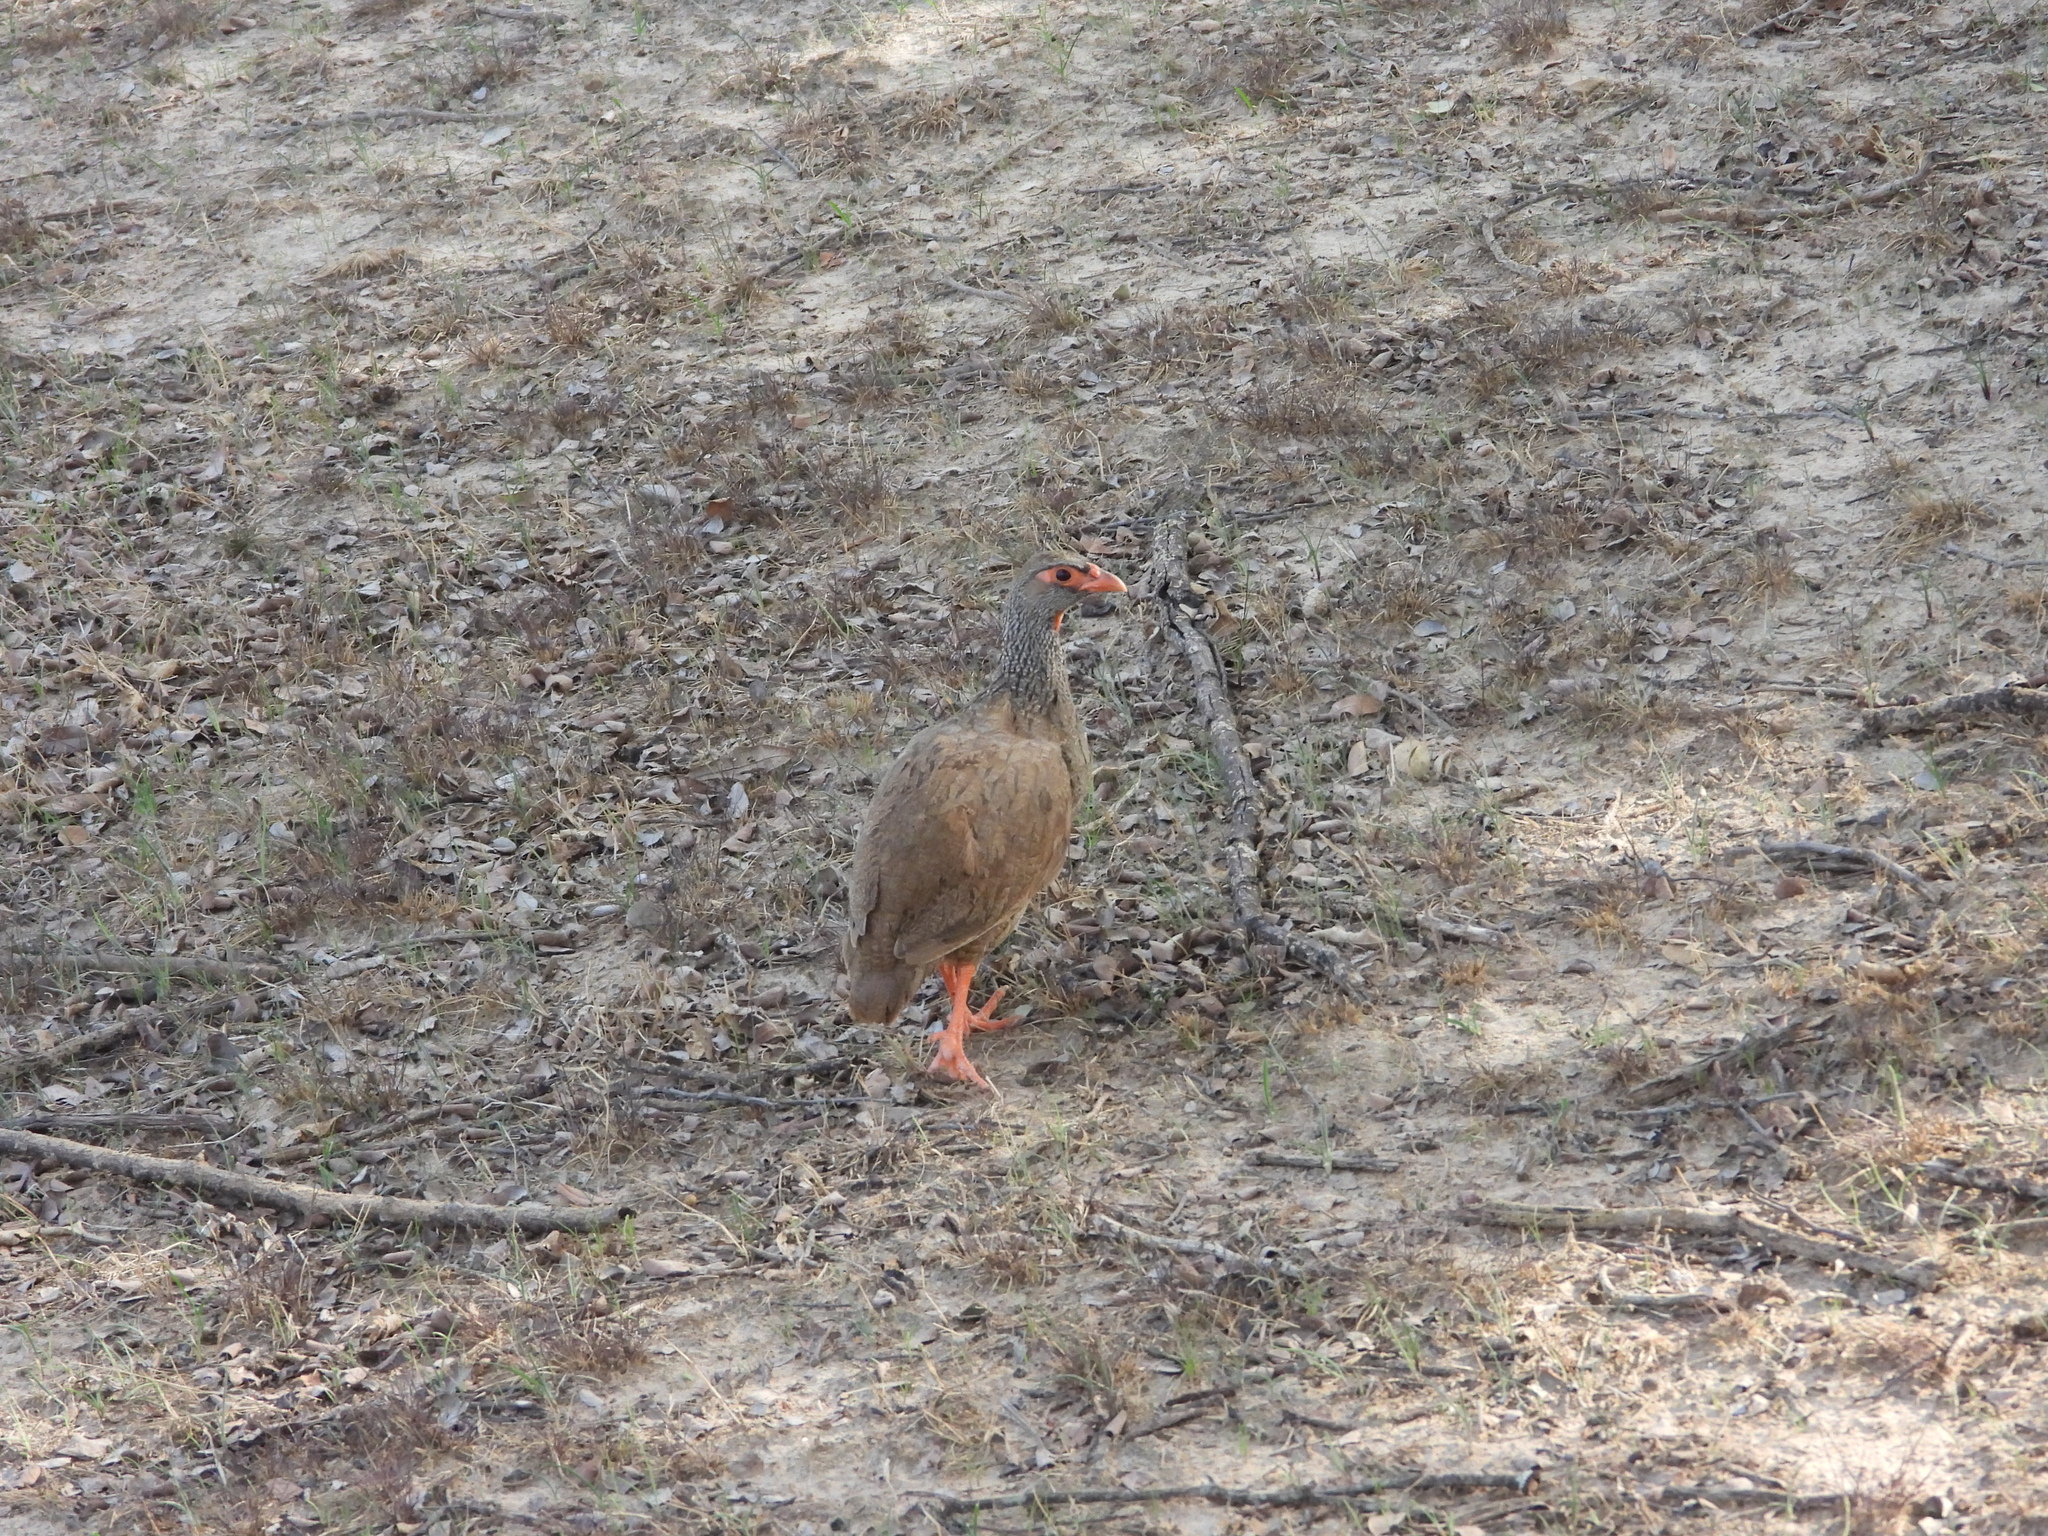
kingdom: Animalia
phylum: Chordata
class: Aves
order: Galliformes
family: Phasianidae
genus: Pternistis
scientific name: Pternistis afer
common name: Red-necked spurfowl
